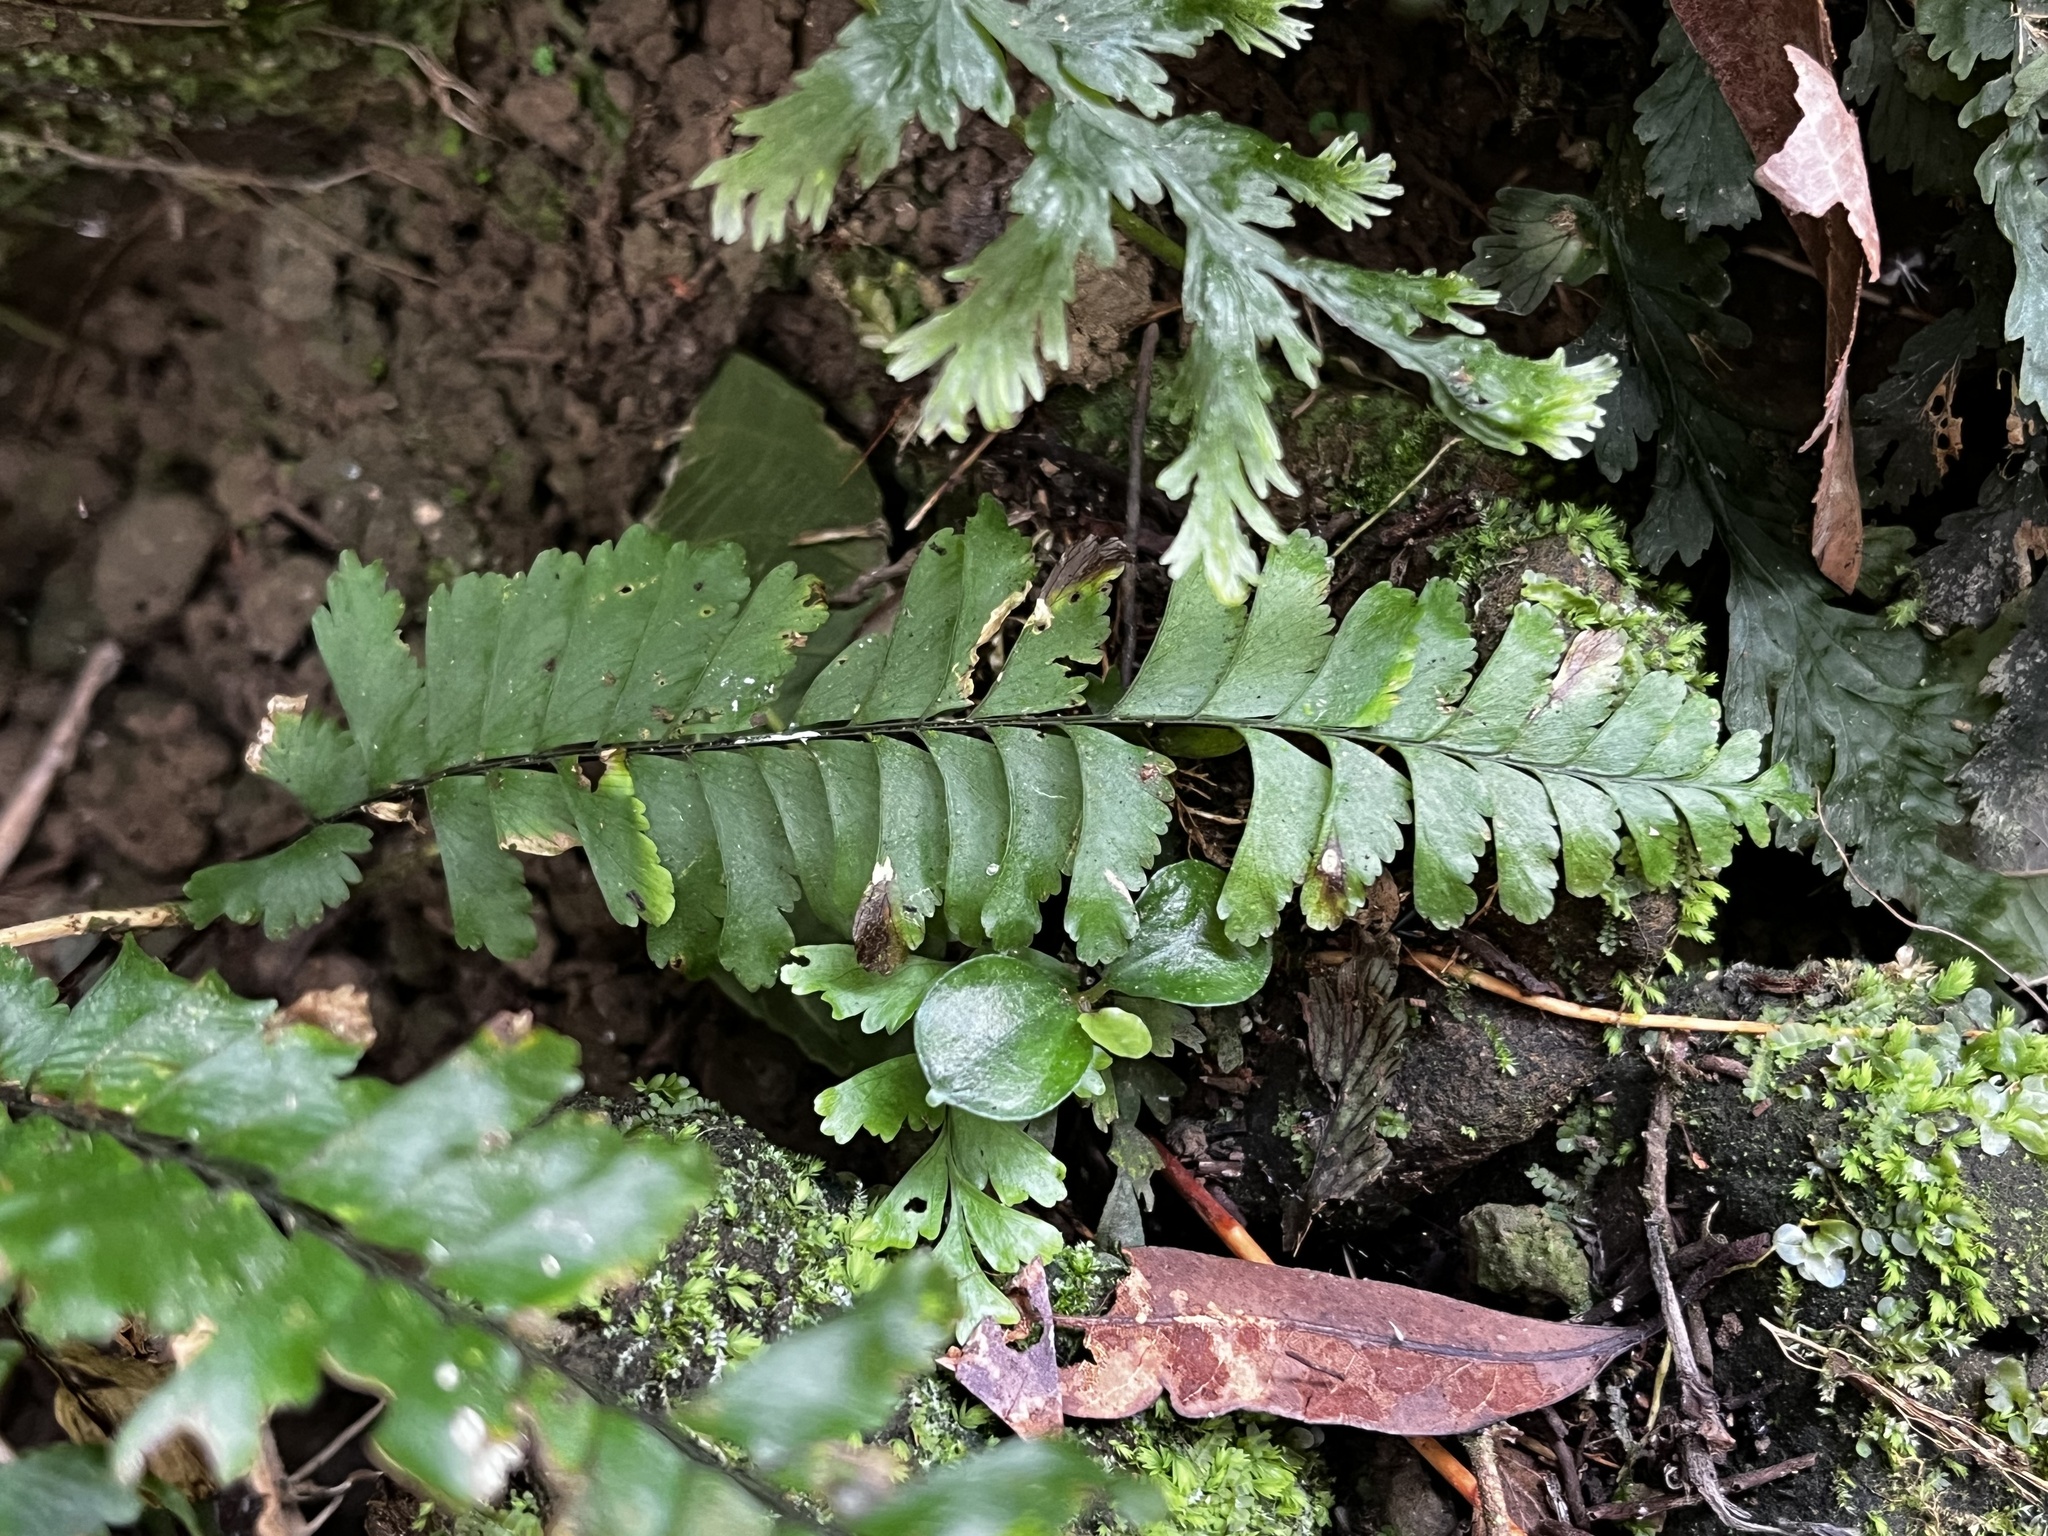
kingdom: Plantae
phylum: Tracheophyta
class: Polypodiopsida
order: Polypodiales
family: Aspleniaceae
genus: Hymenasplenium
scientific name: Hymenasplenium cheilosorum
